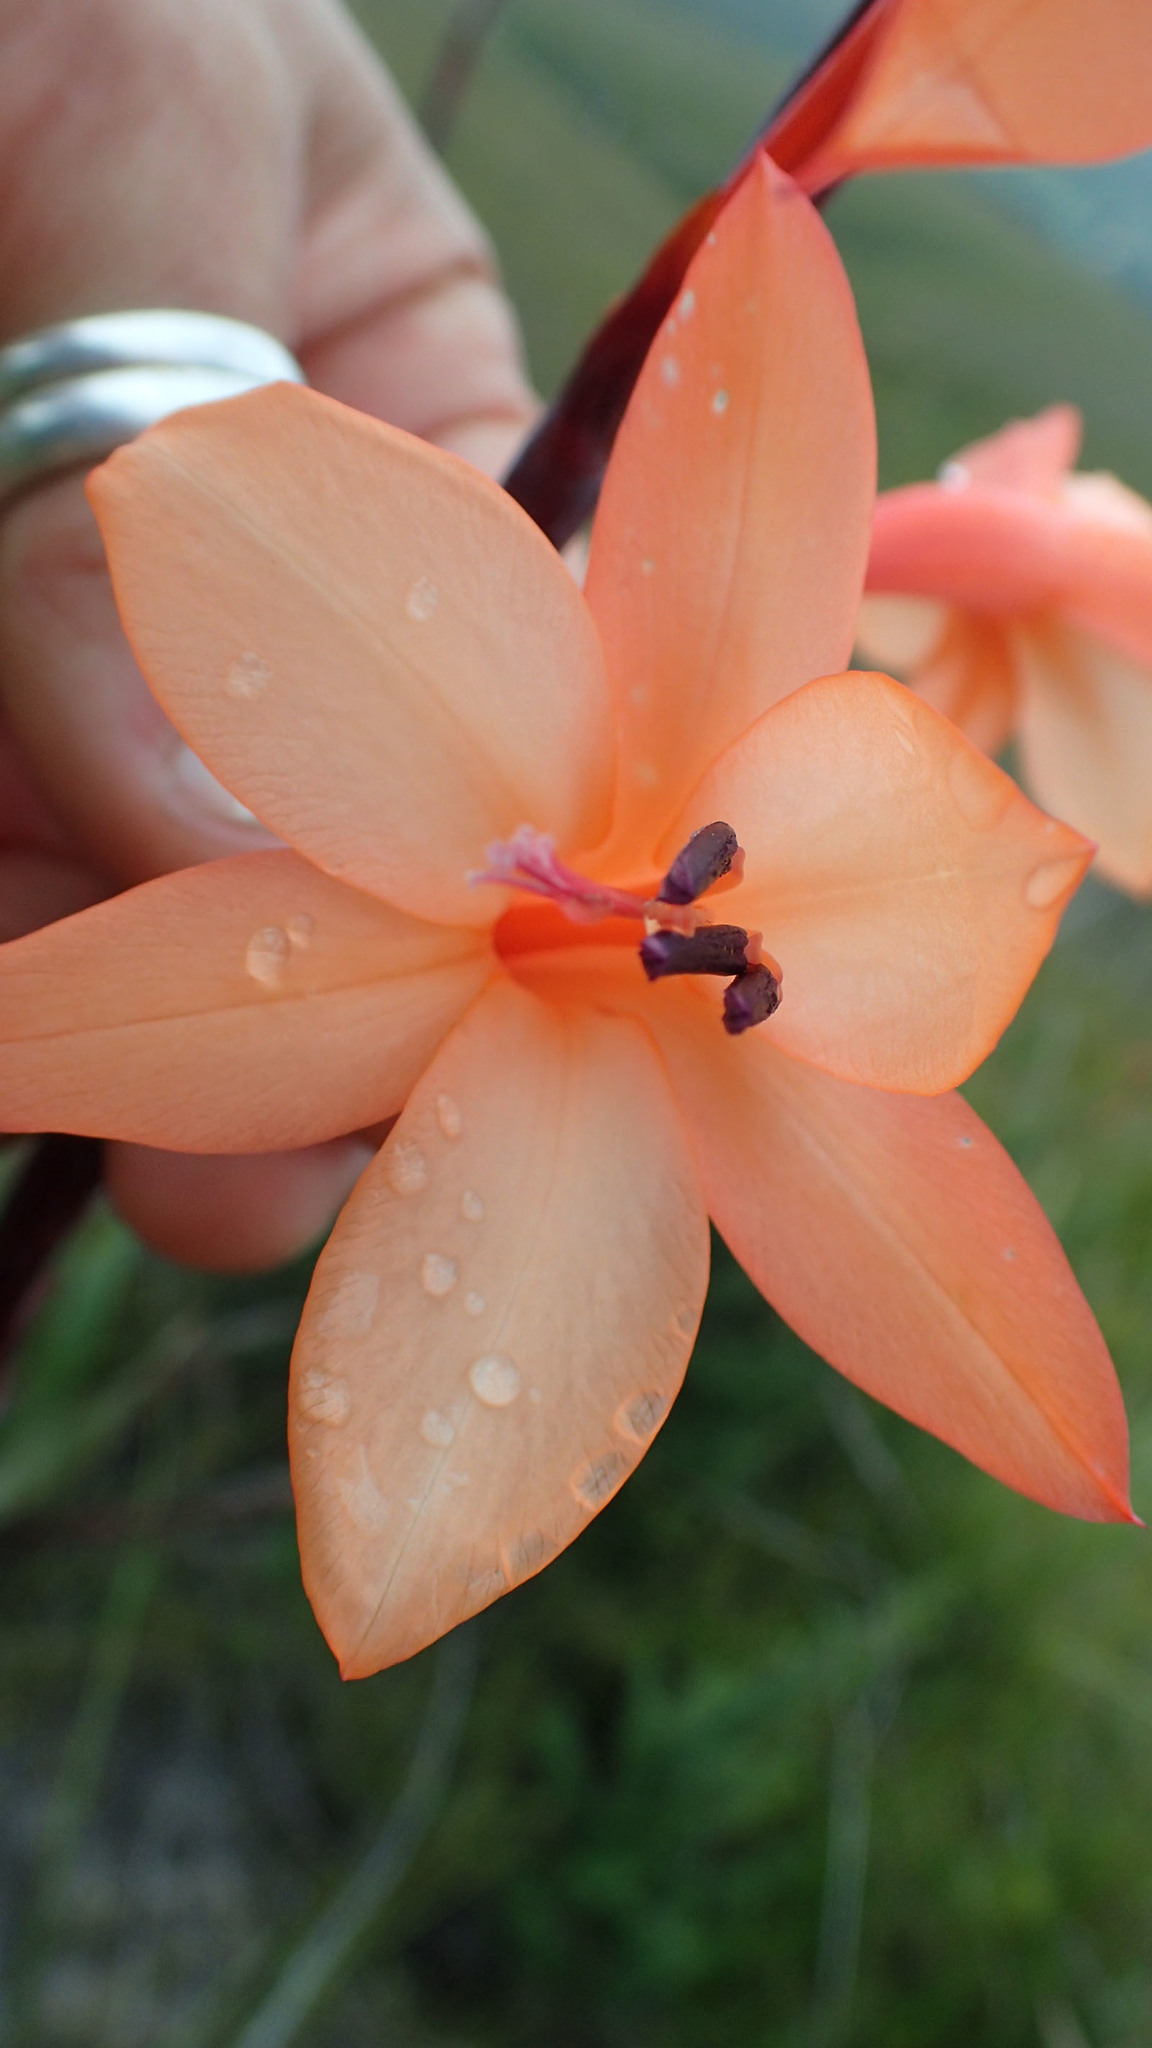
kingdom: Plantae
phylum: Tracheophyta
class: Liliopsida
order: Asparagales
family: Iridaceae
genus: Watsonia
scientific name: Watsonia fourcadei
